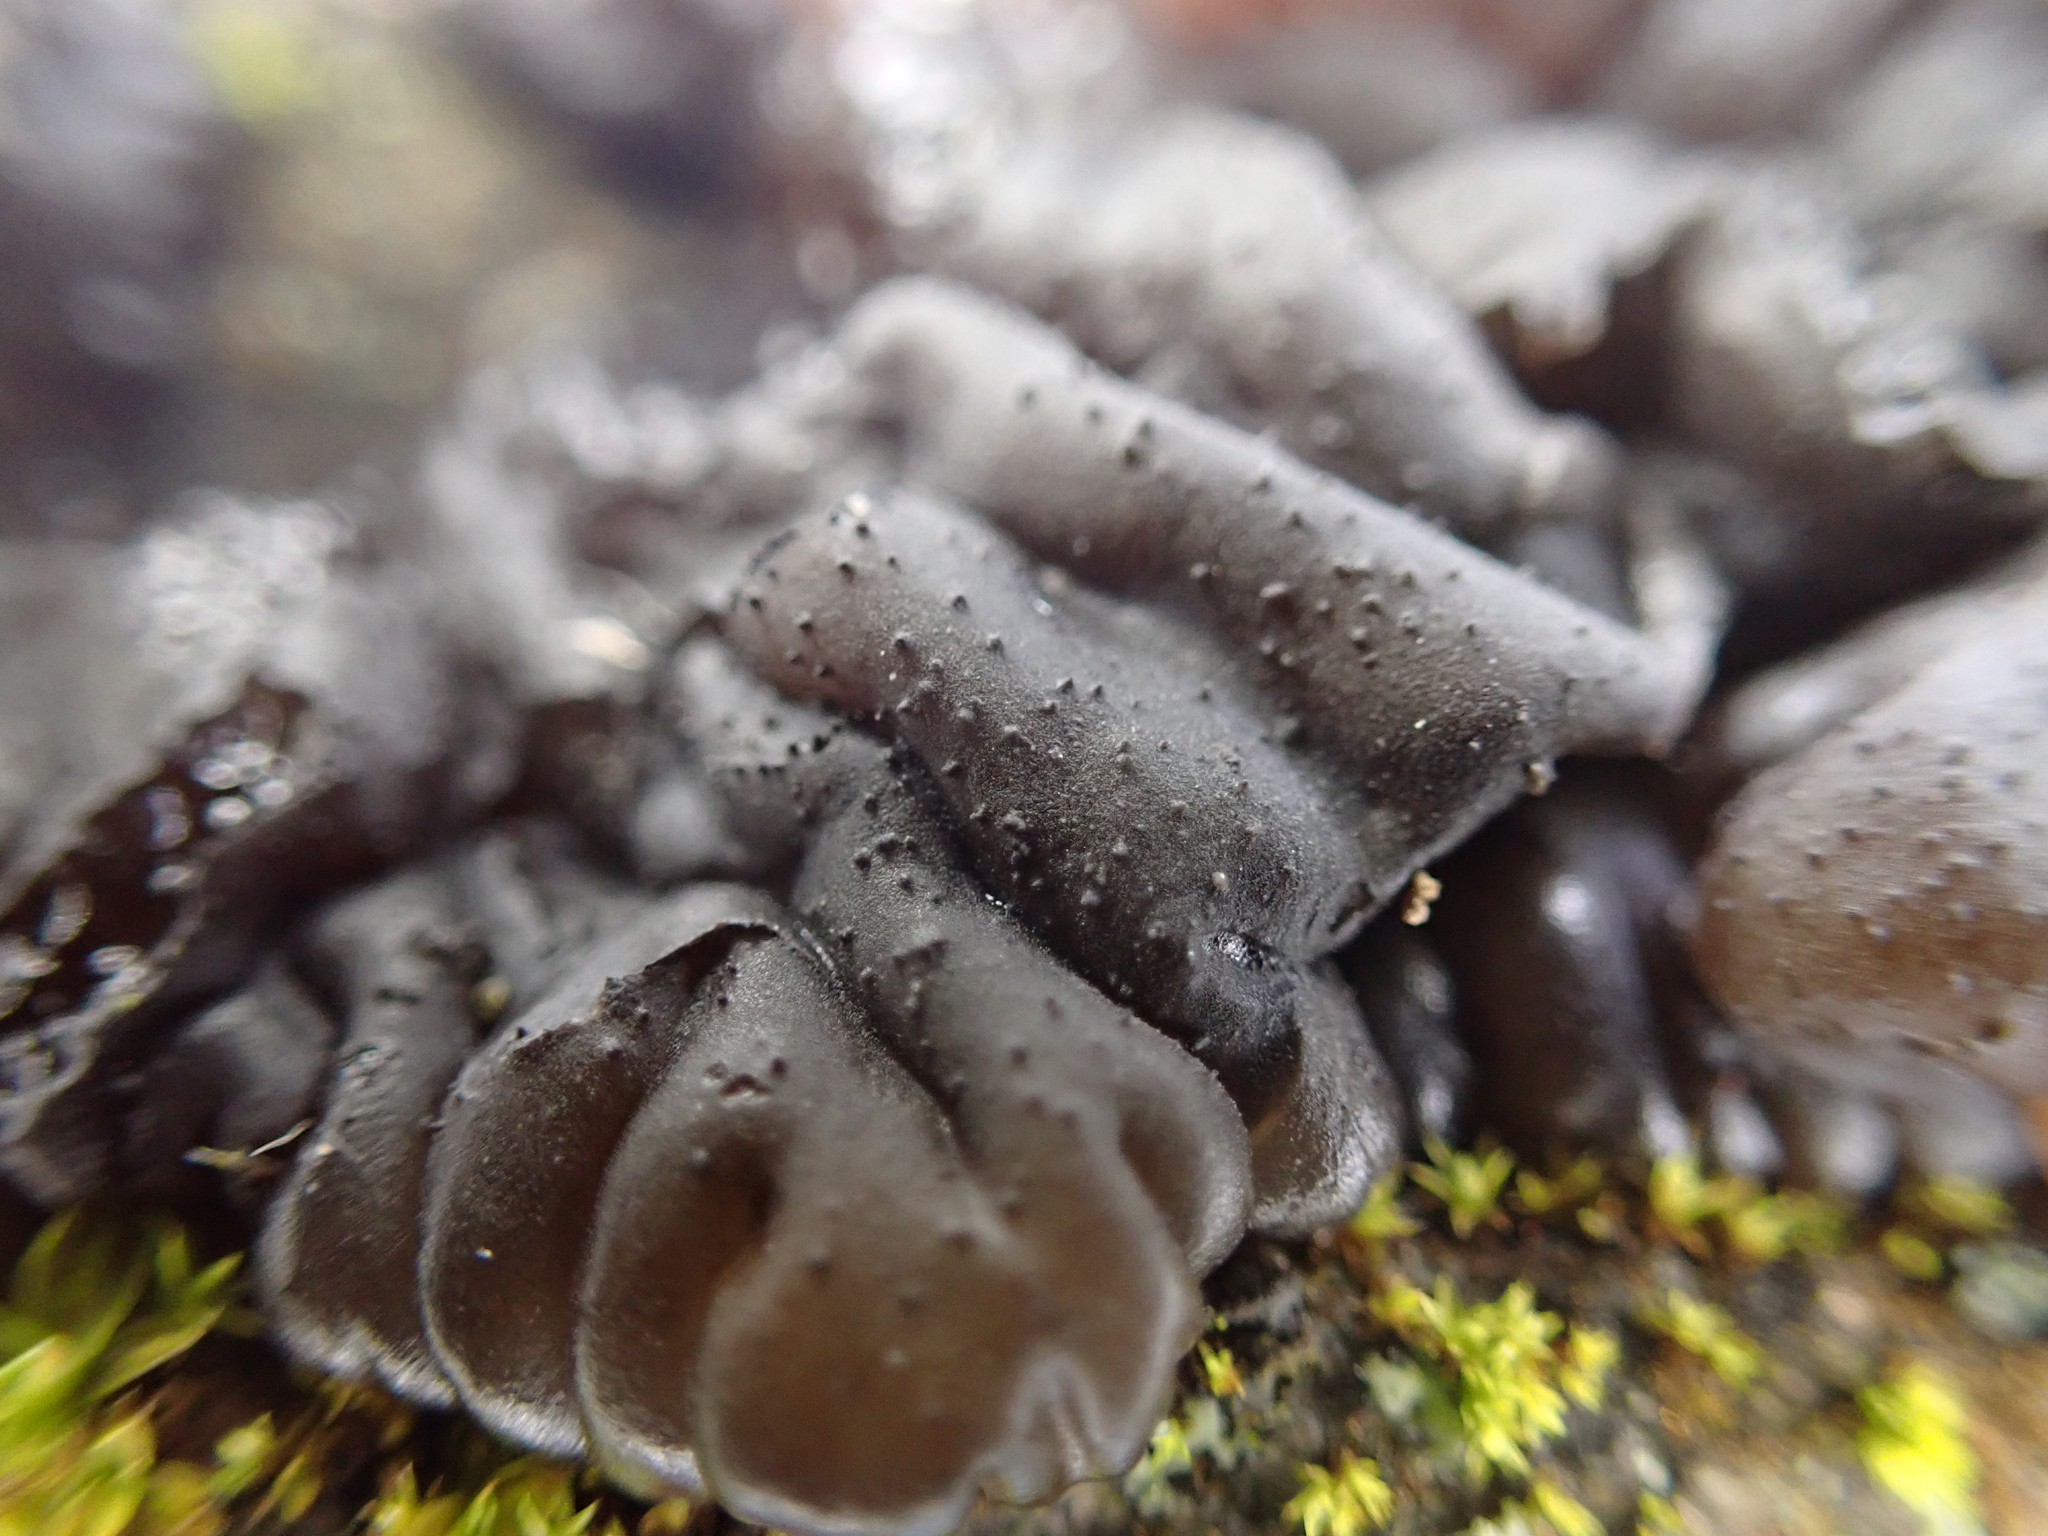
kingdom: Fungi
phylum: Basidiomycota
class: Agaricomycetes
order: Auriculariales
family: Auriculariaceae
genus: Exidia
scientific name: Exidia nigricans
